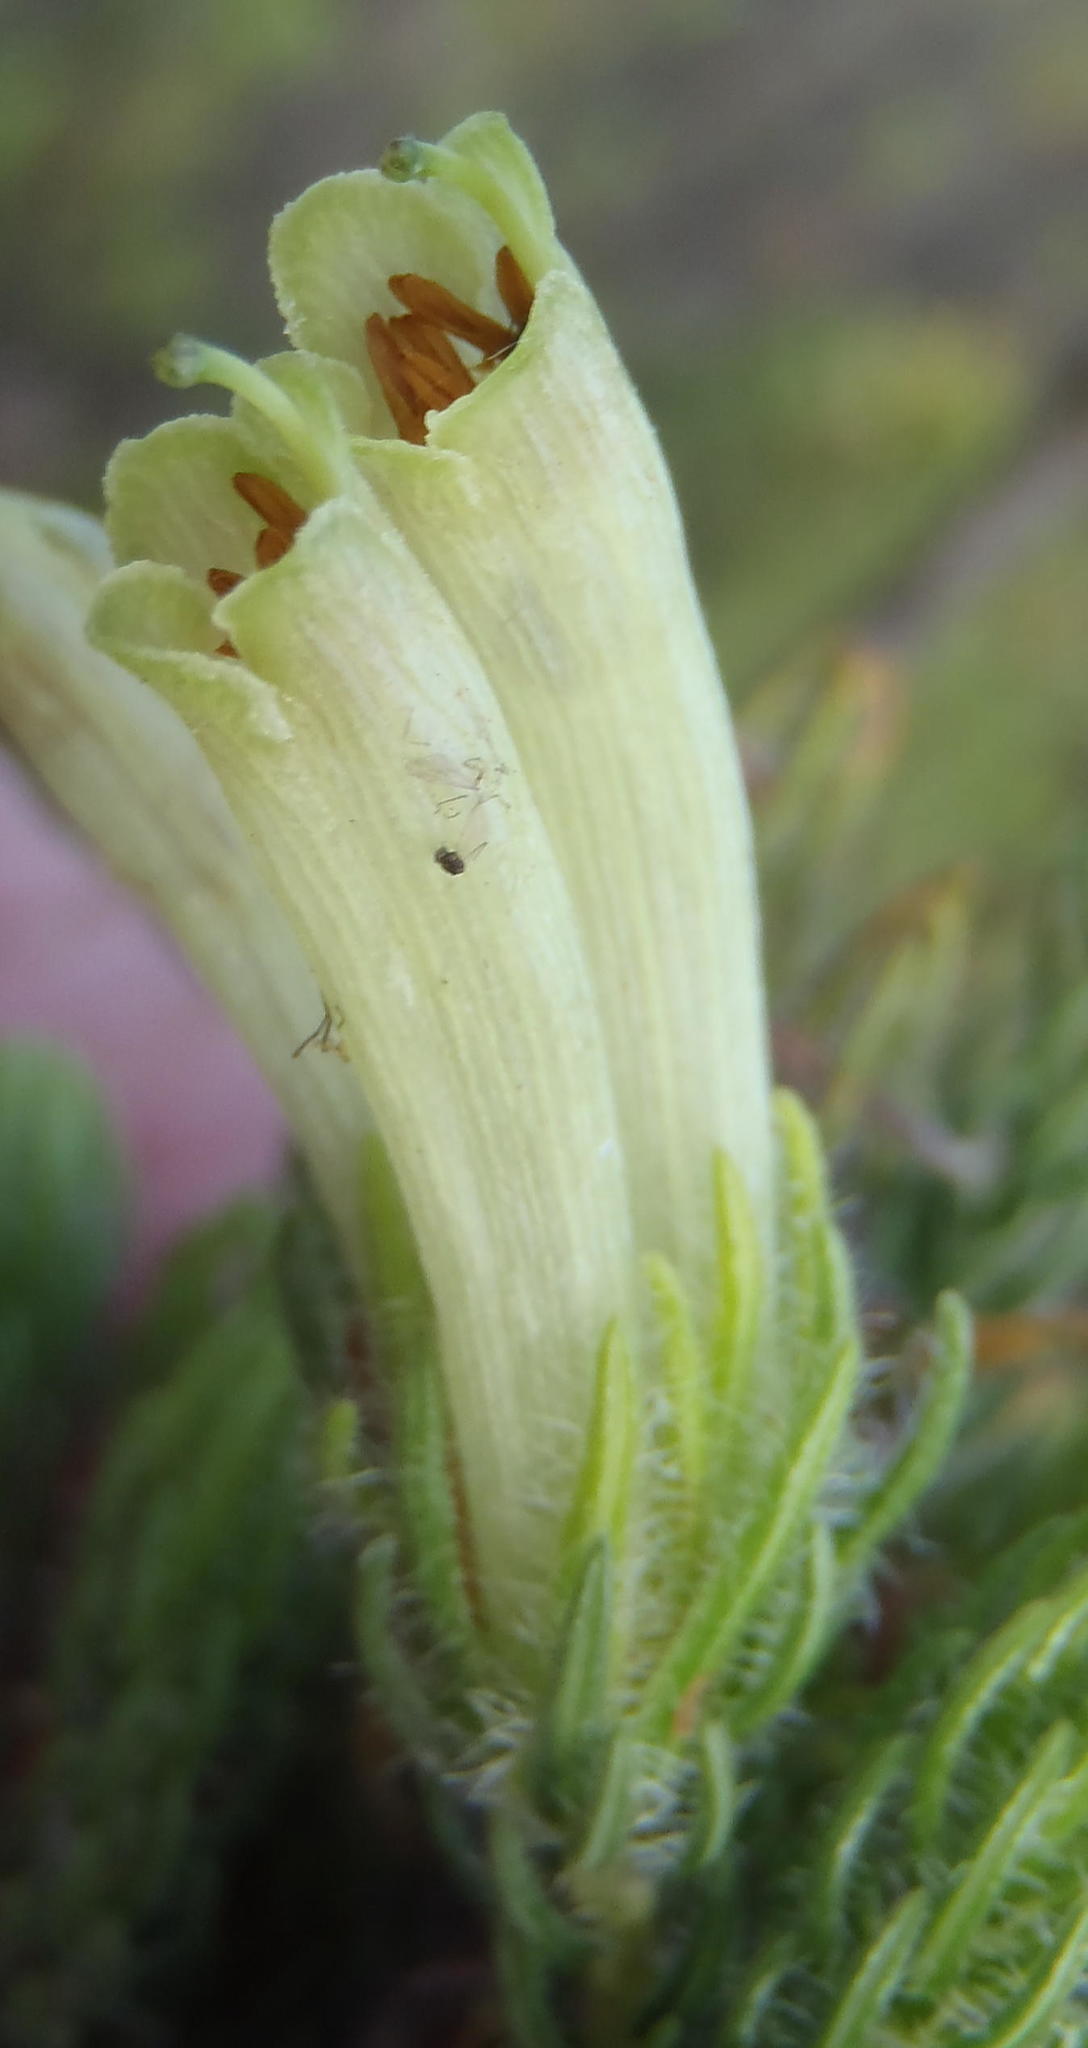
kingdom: Plantae
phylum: Tracheophyta
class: Magnoliopsida
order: Ericales
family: Ericaceae
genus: Erica
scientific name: Erica unicolor
